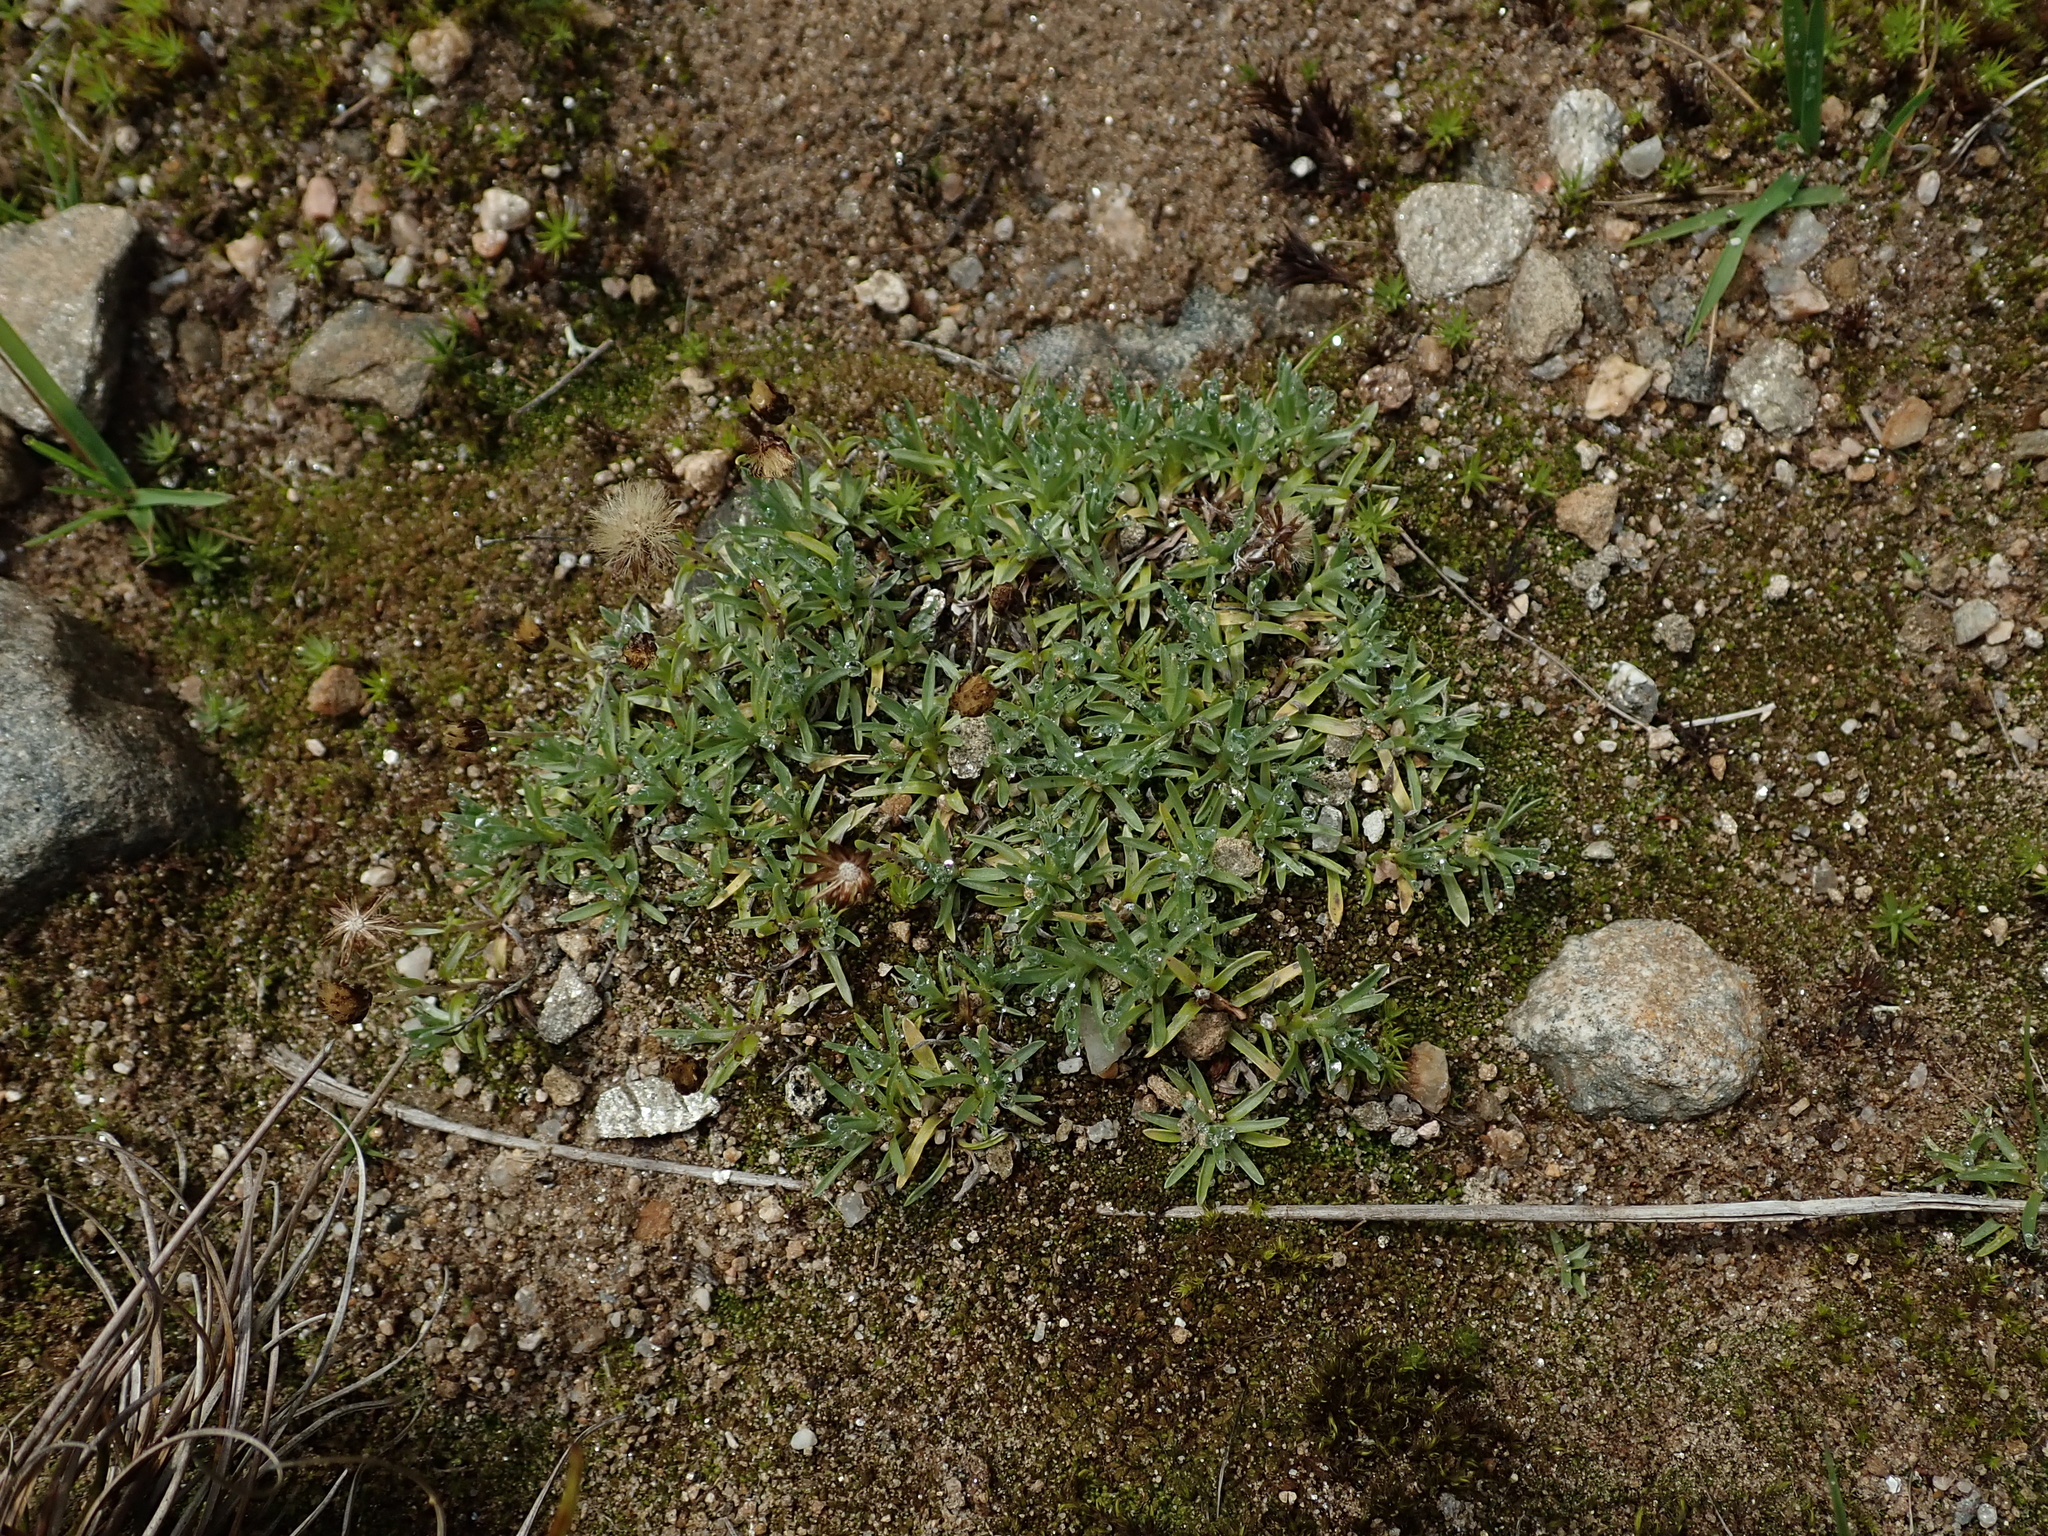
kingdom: Plantae
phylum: Tracheophyta
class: Magnoliopsida
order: Asterales
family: Asteraceae
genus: Omalotheca
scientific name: Omalotheca supina
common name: Alpine arctic-cudweed
